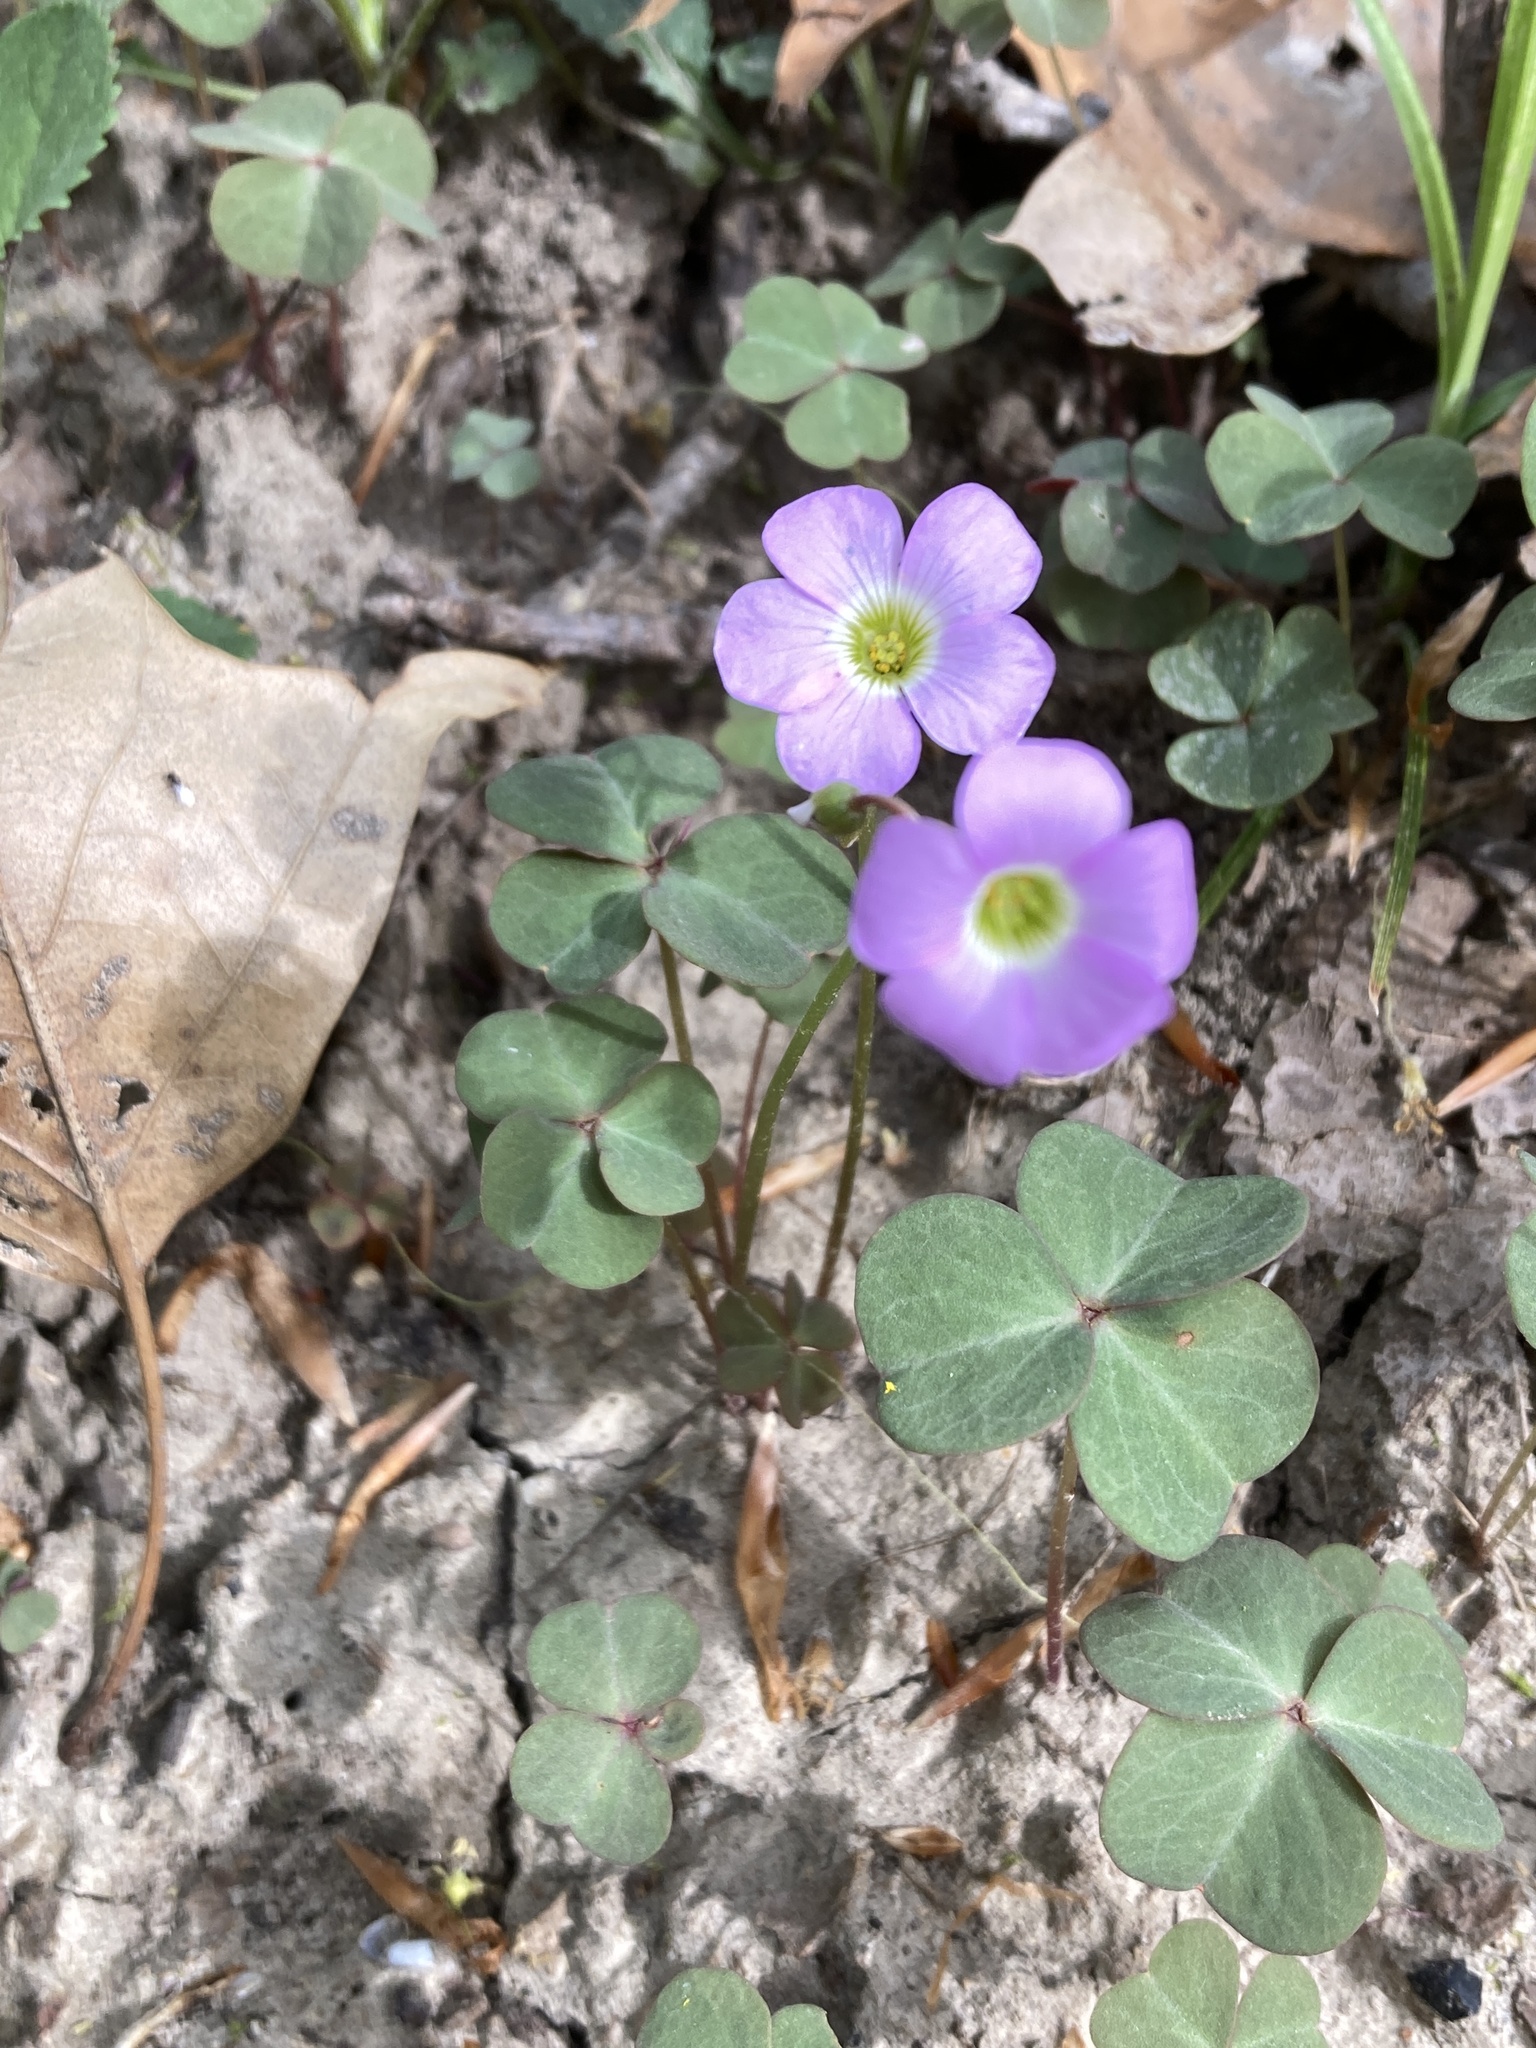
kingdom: Plantae
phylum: Tracheophyta
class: Magnoliopsida
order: Oxalidales
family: Oxalidaceae
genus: Oxalis
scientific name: Oxalis violacea
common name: Violet wood-sorrel
